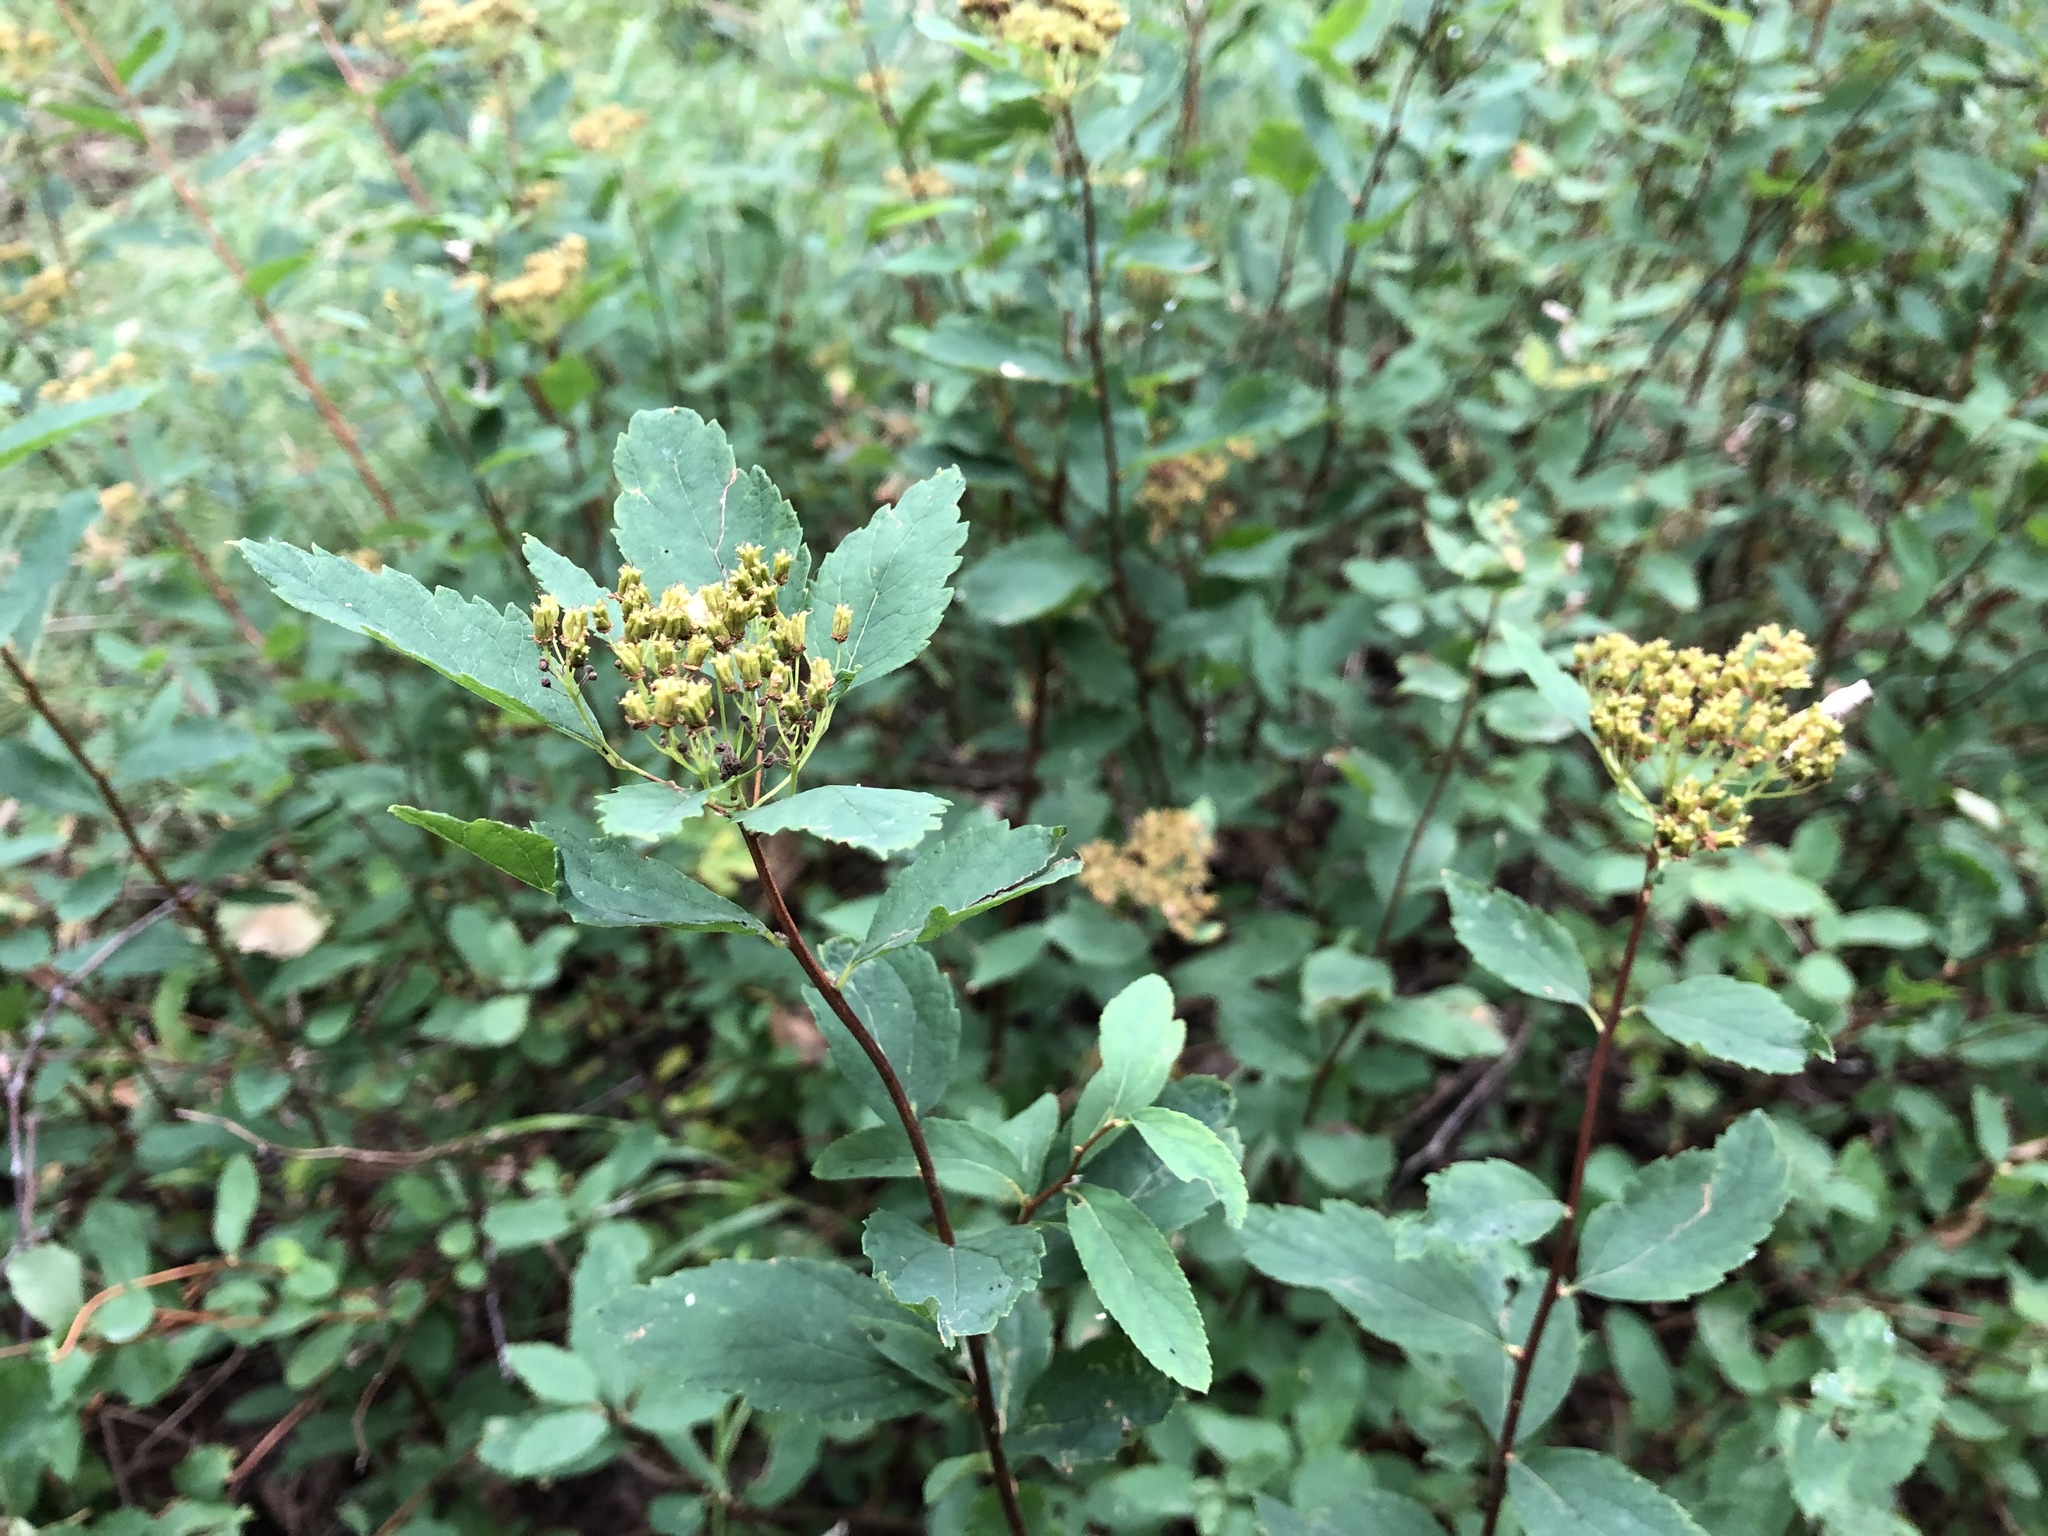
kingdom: Plantae
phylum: Tracheophyta
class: Magnoliopsida
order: Rosales
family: Rosaceae
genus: Spiraea
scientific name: Spiraea stevenii
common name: Steven's meadowsweet
